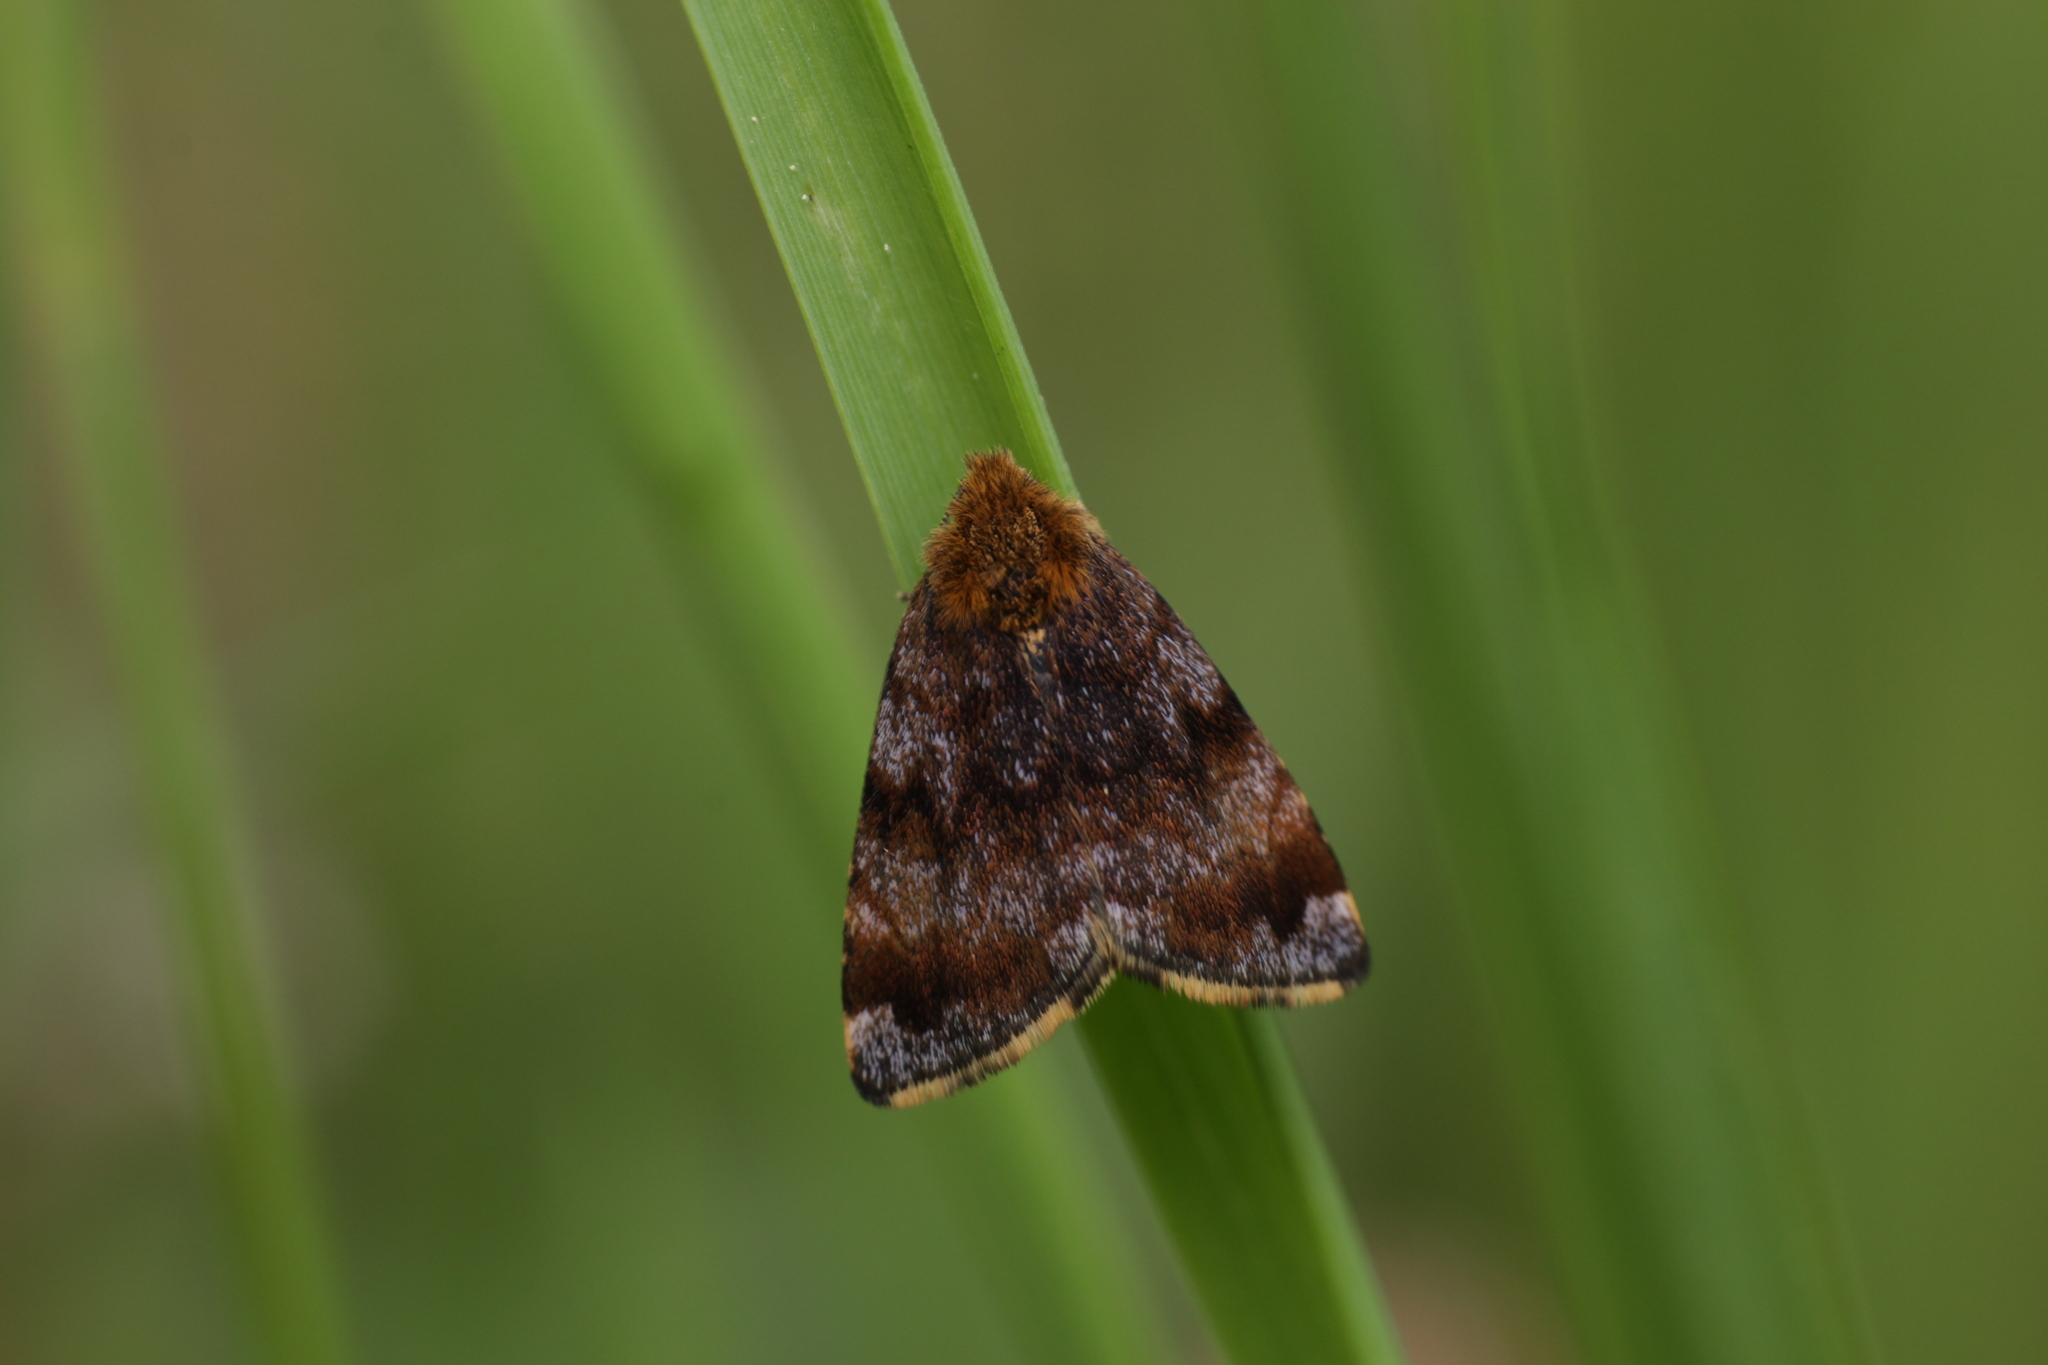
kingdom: Animalia
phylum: Arthropoda
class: Insecta
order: Lepidoptera
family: Noctuidae
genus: Panemeria
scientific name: Panemeria tenebrata
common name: Small yellow underwing
